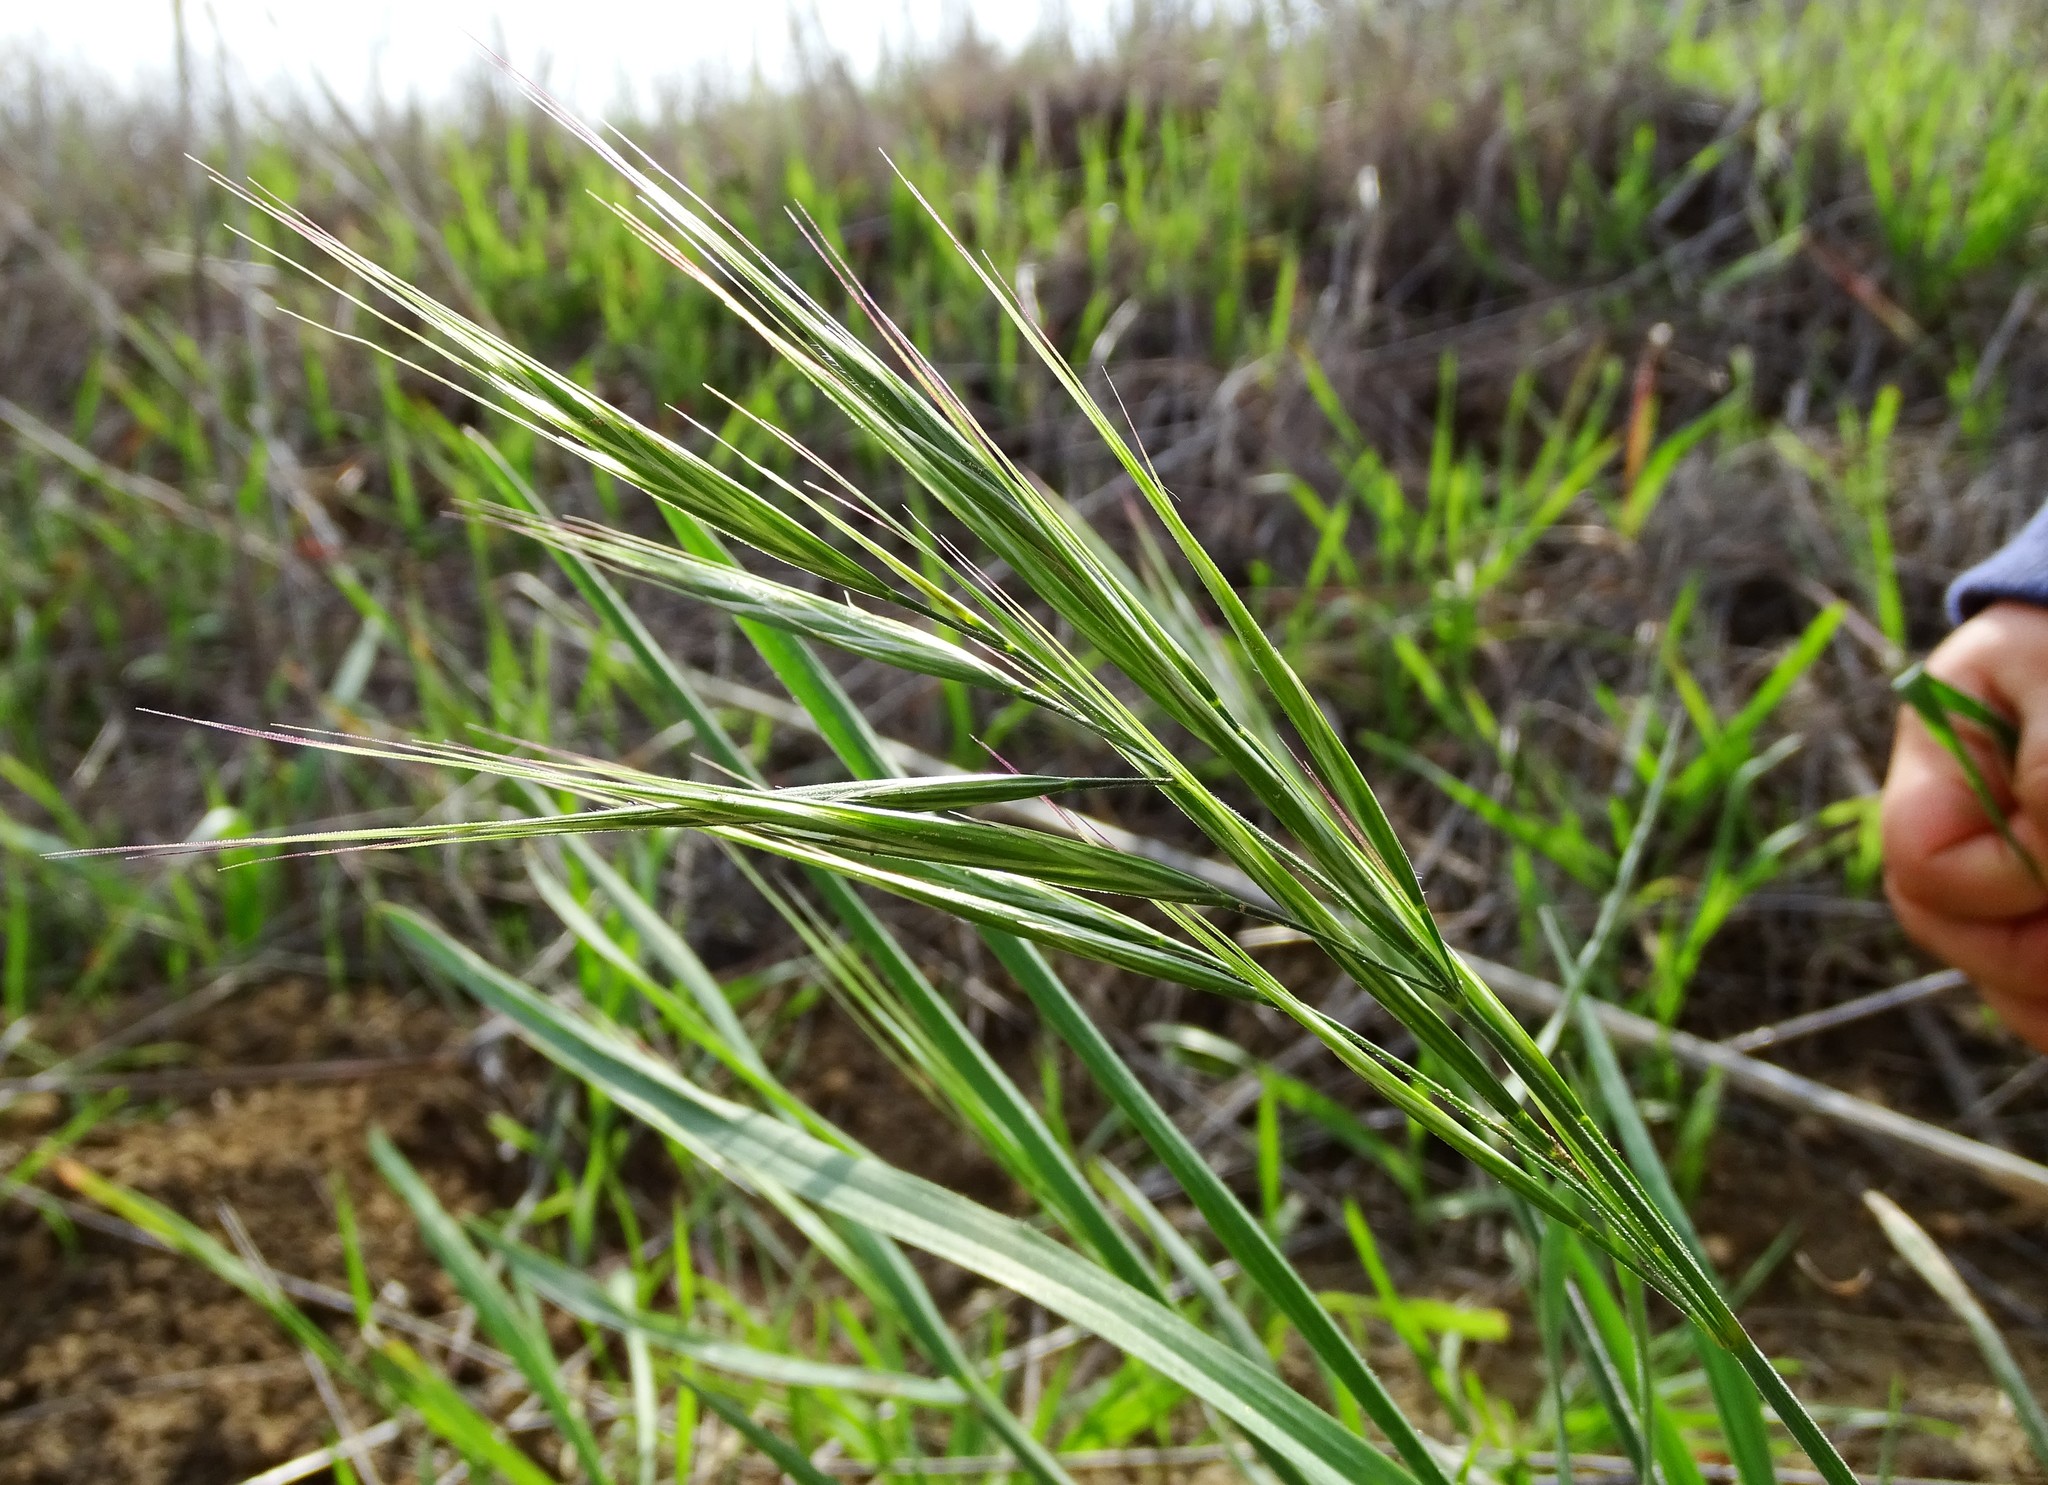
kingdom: Plantae
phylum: Tracheophyta
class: Liliopsida
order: Poales
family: Poaceae
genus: Bromus
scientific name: Bromus diandrus
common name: Ripgut brome
